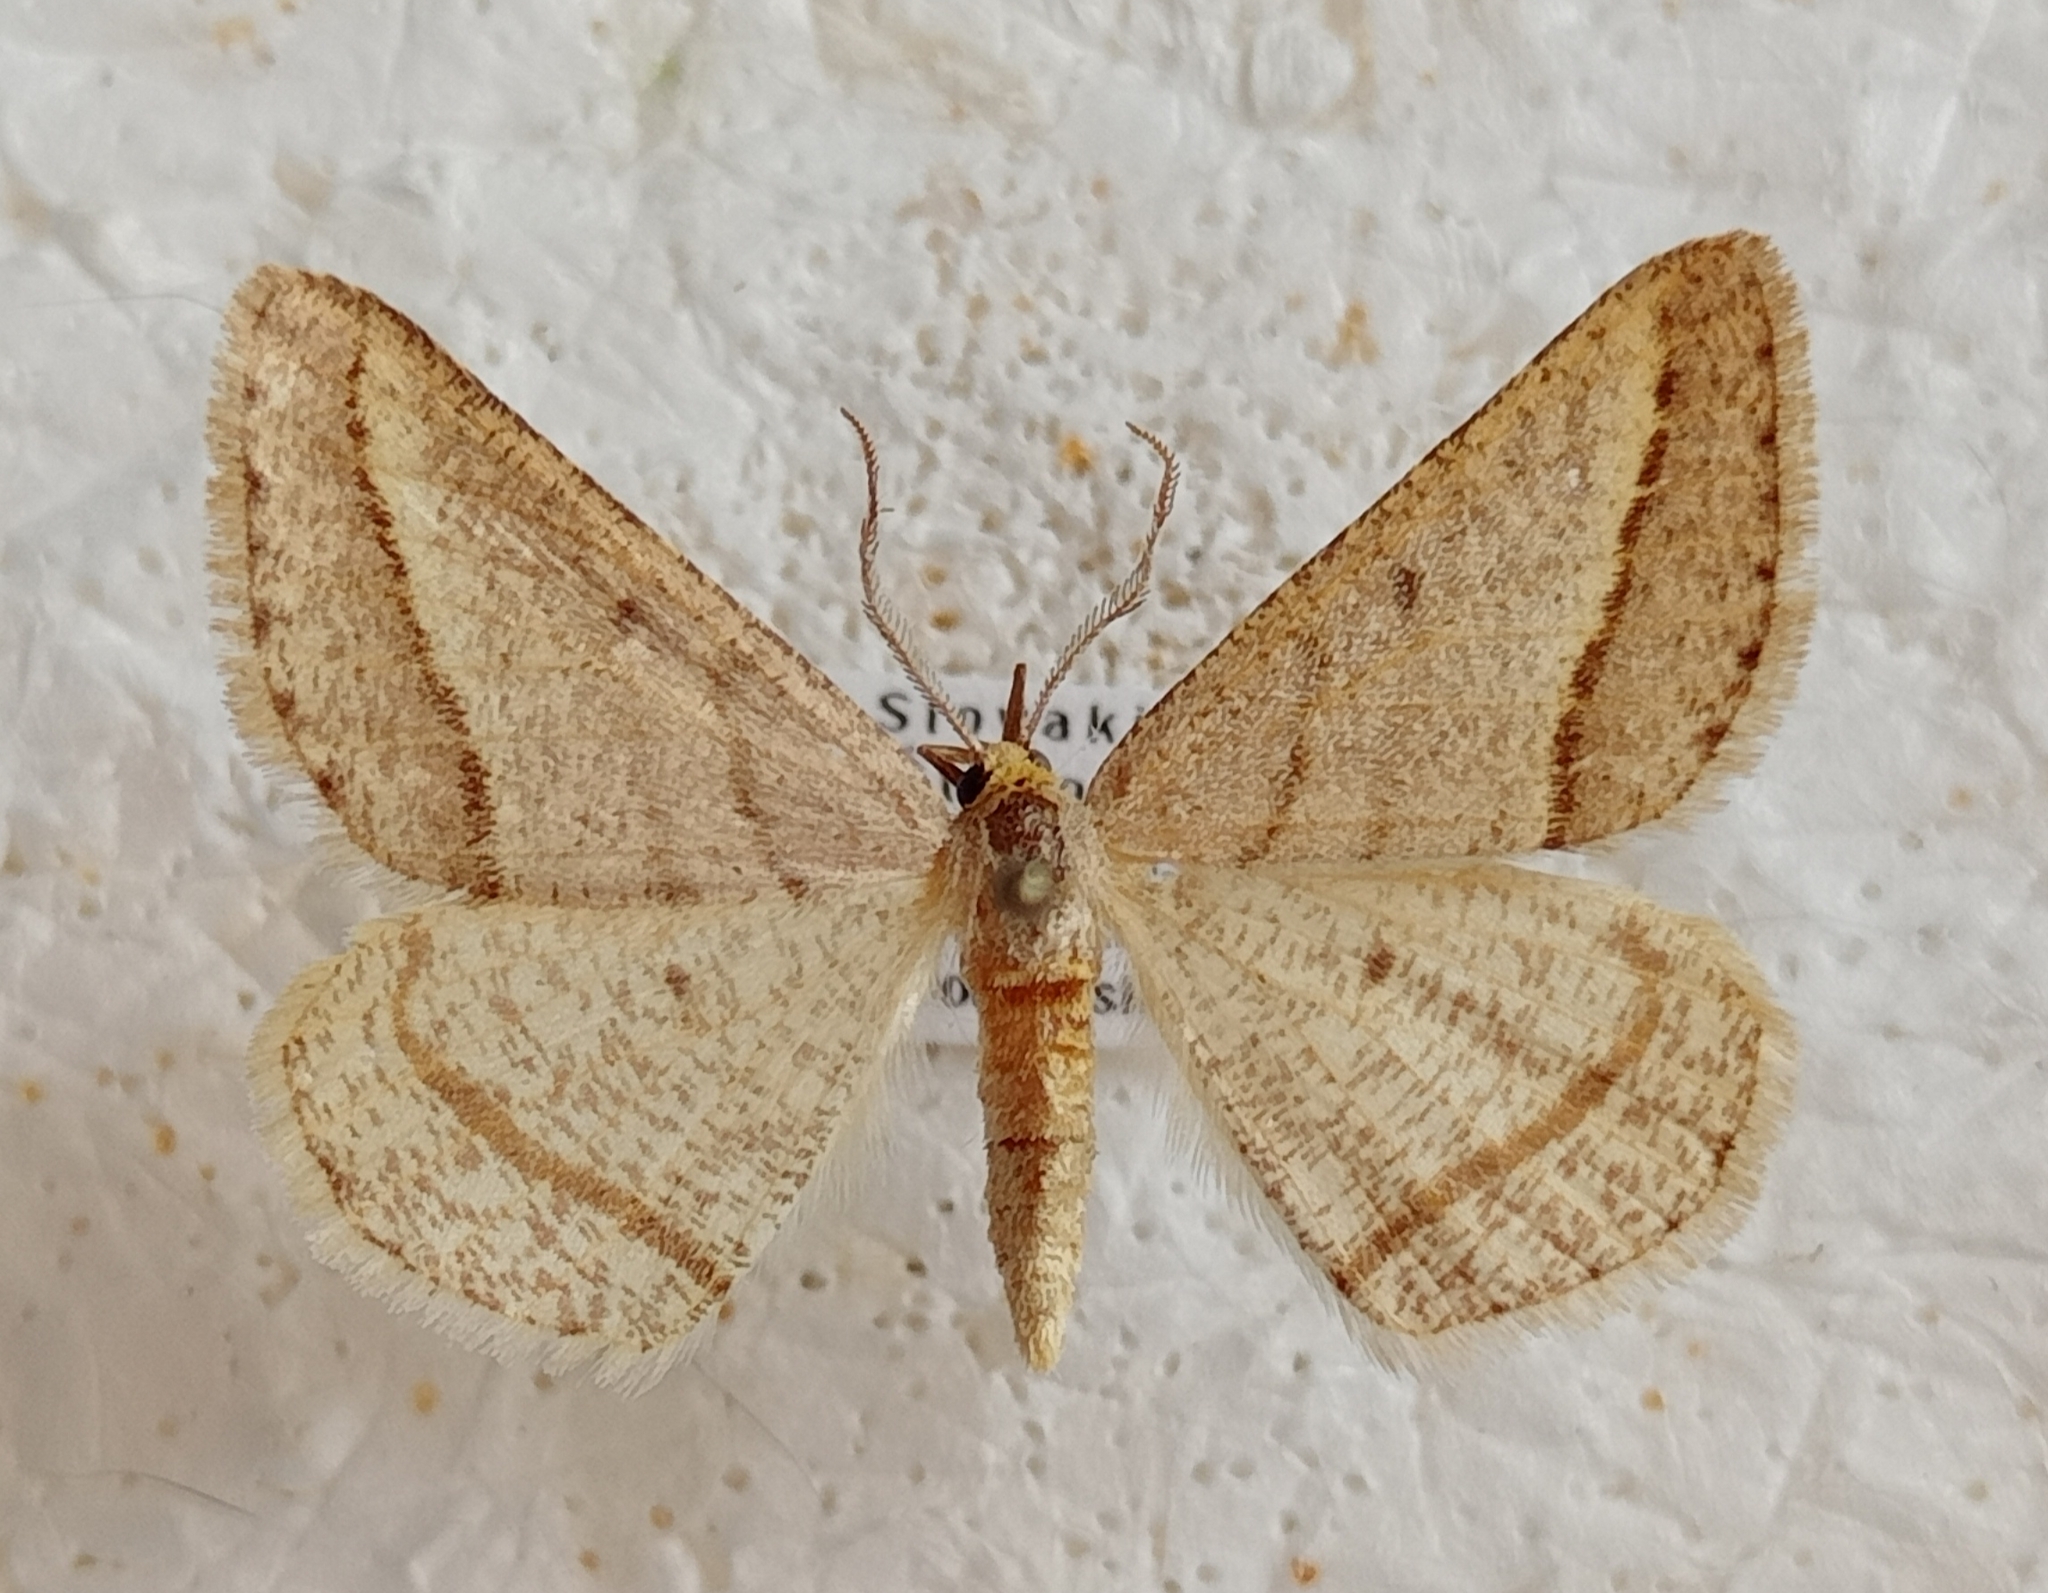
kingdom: Animalia
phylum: Arthropoda
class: Insecta
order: Lepidoptera
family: Geometridae
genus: Tephrina
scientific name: Tephrina arenacearia
